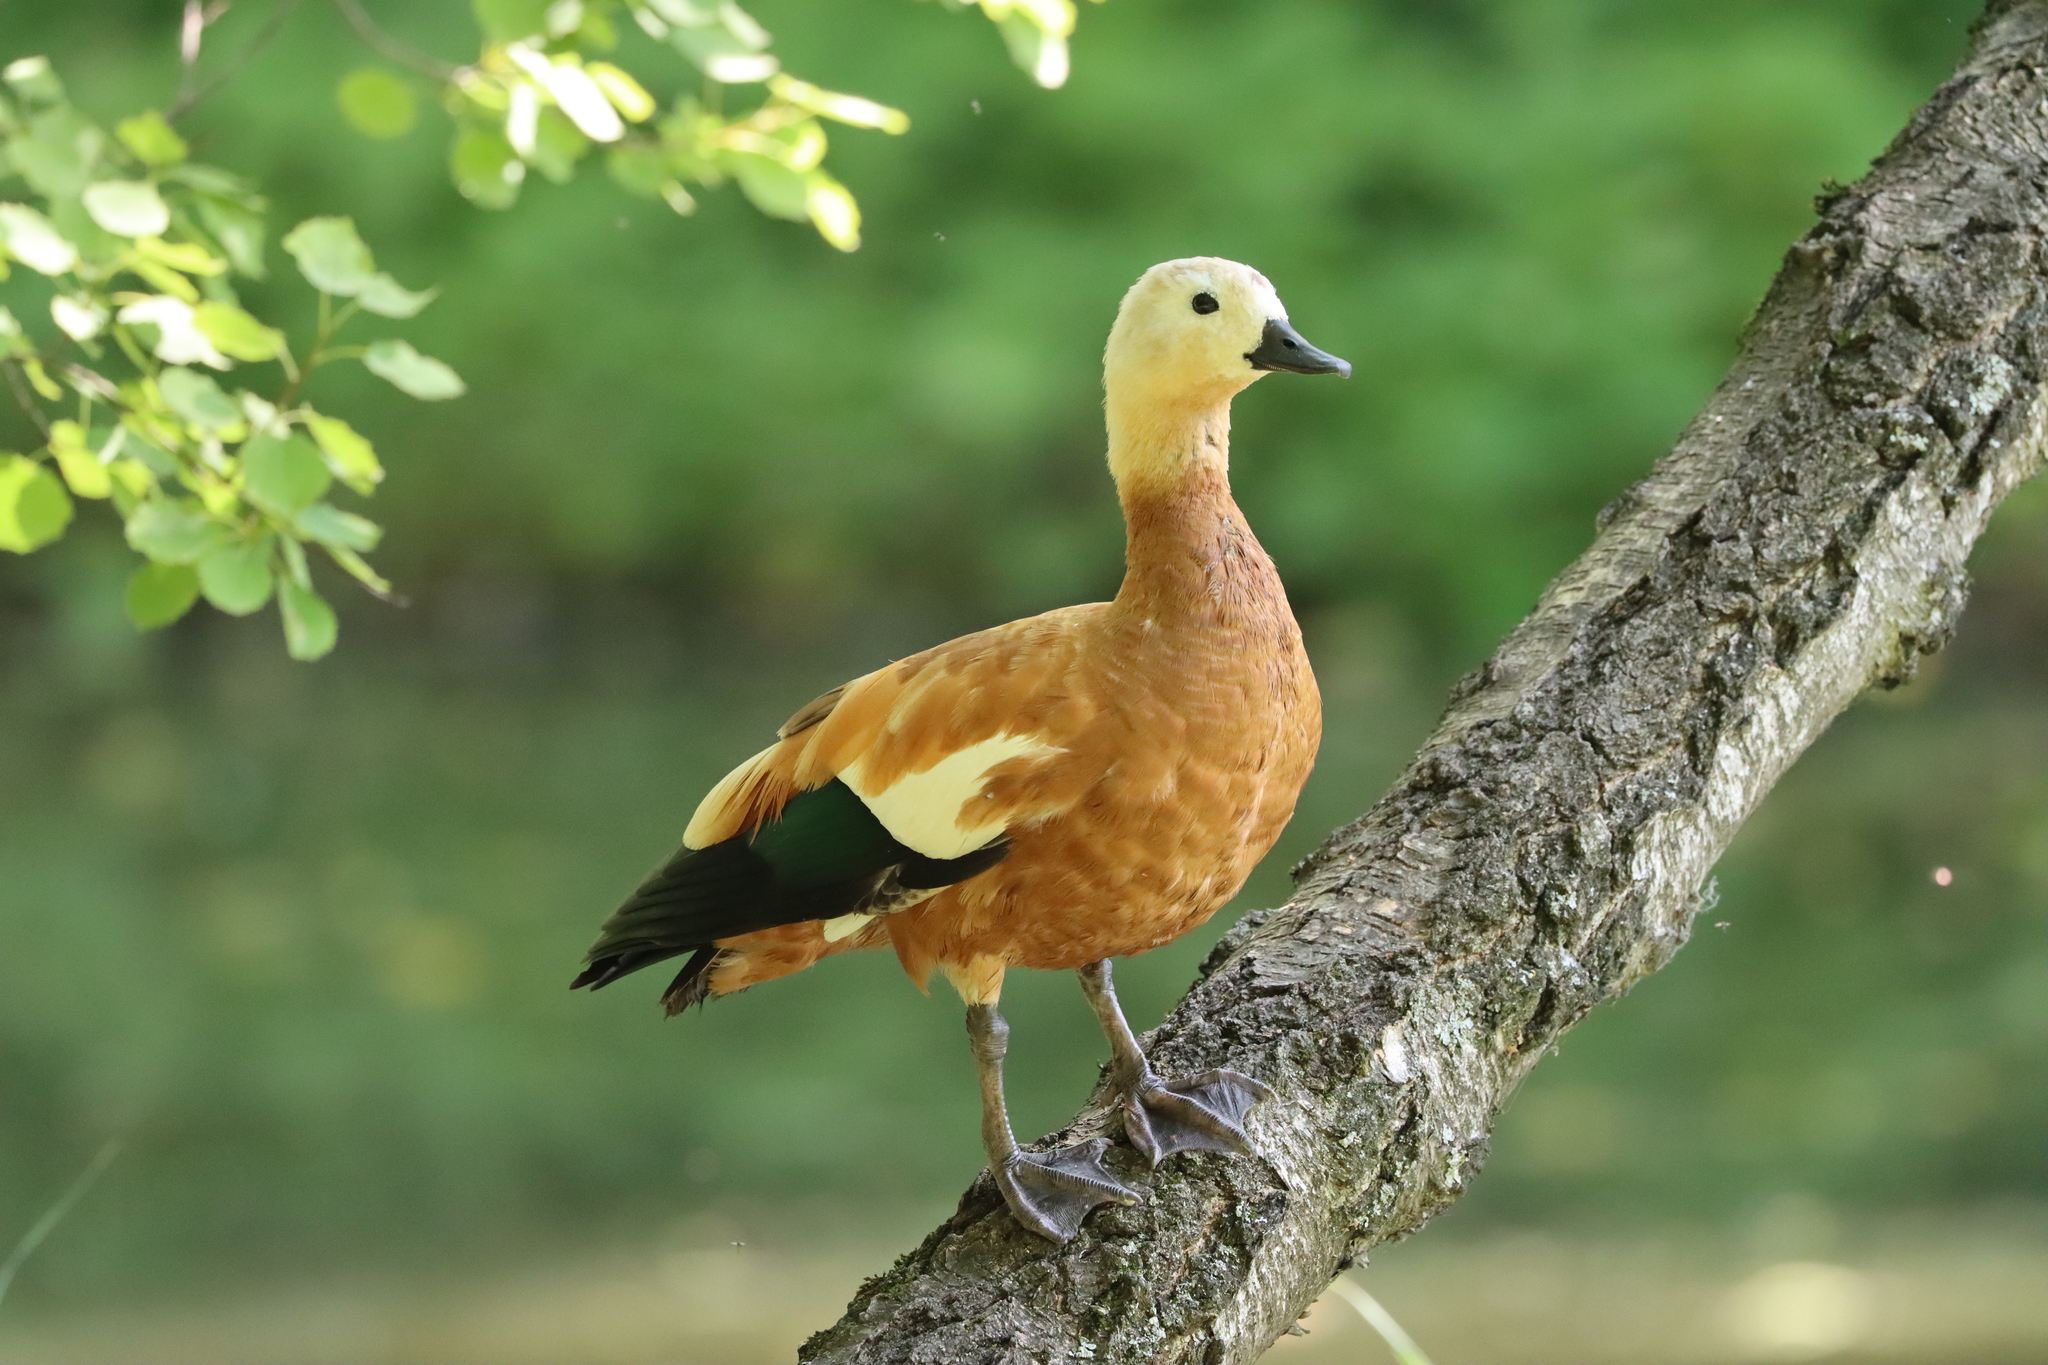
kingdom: Animalia
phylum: Chordata
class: Aves
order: Anseriformes
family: Anatidae
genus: Tadorna
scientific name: Tadorna ferruginea
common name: Ruddy shelduck
